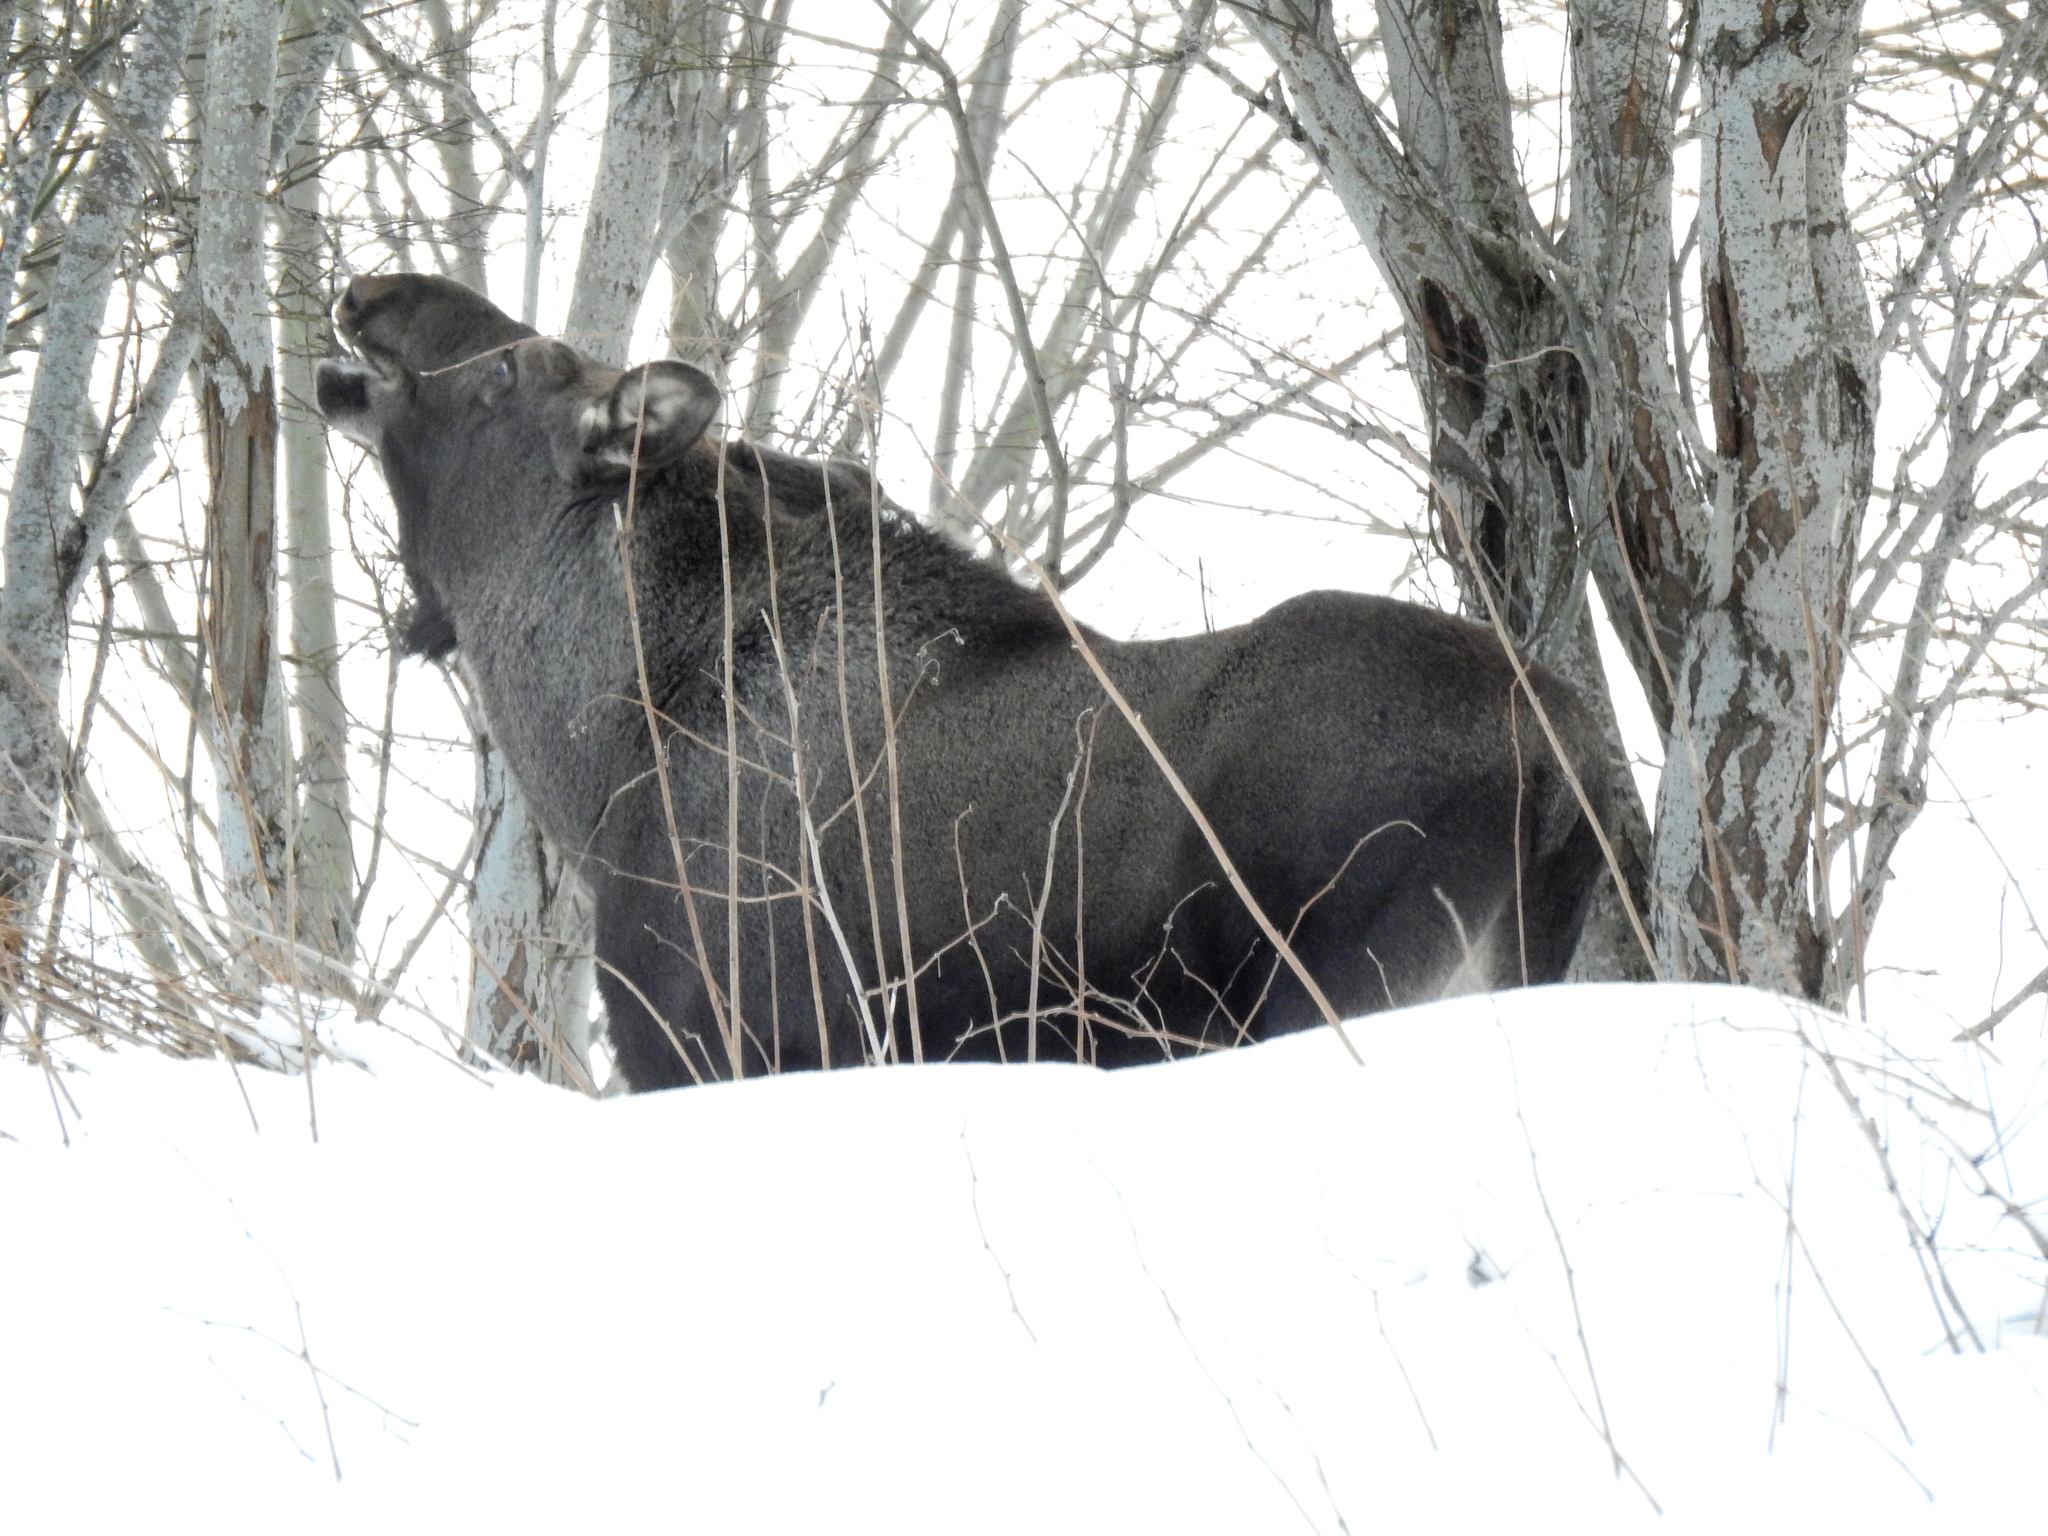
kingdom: Animalia
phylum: Chordata
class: Mammalia
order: Artiodactyla
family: Cervidae
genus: Alces
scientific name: Alces alces
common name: Moose
